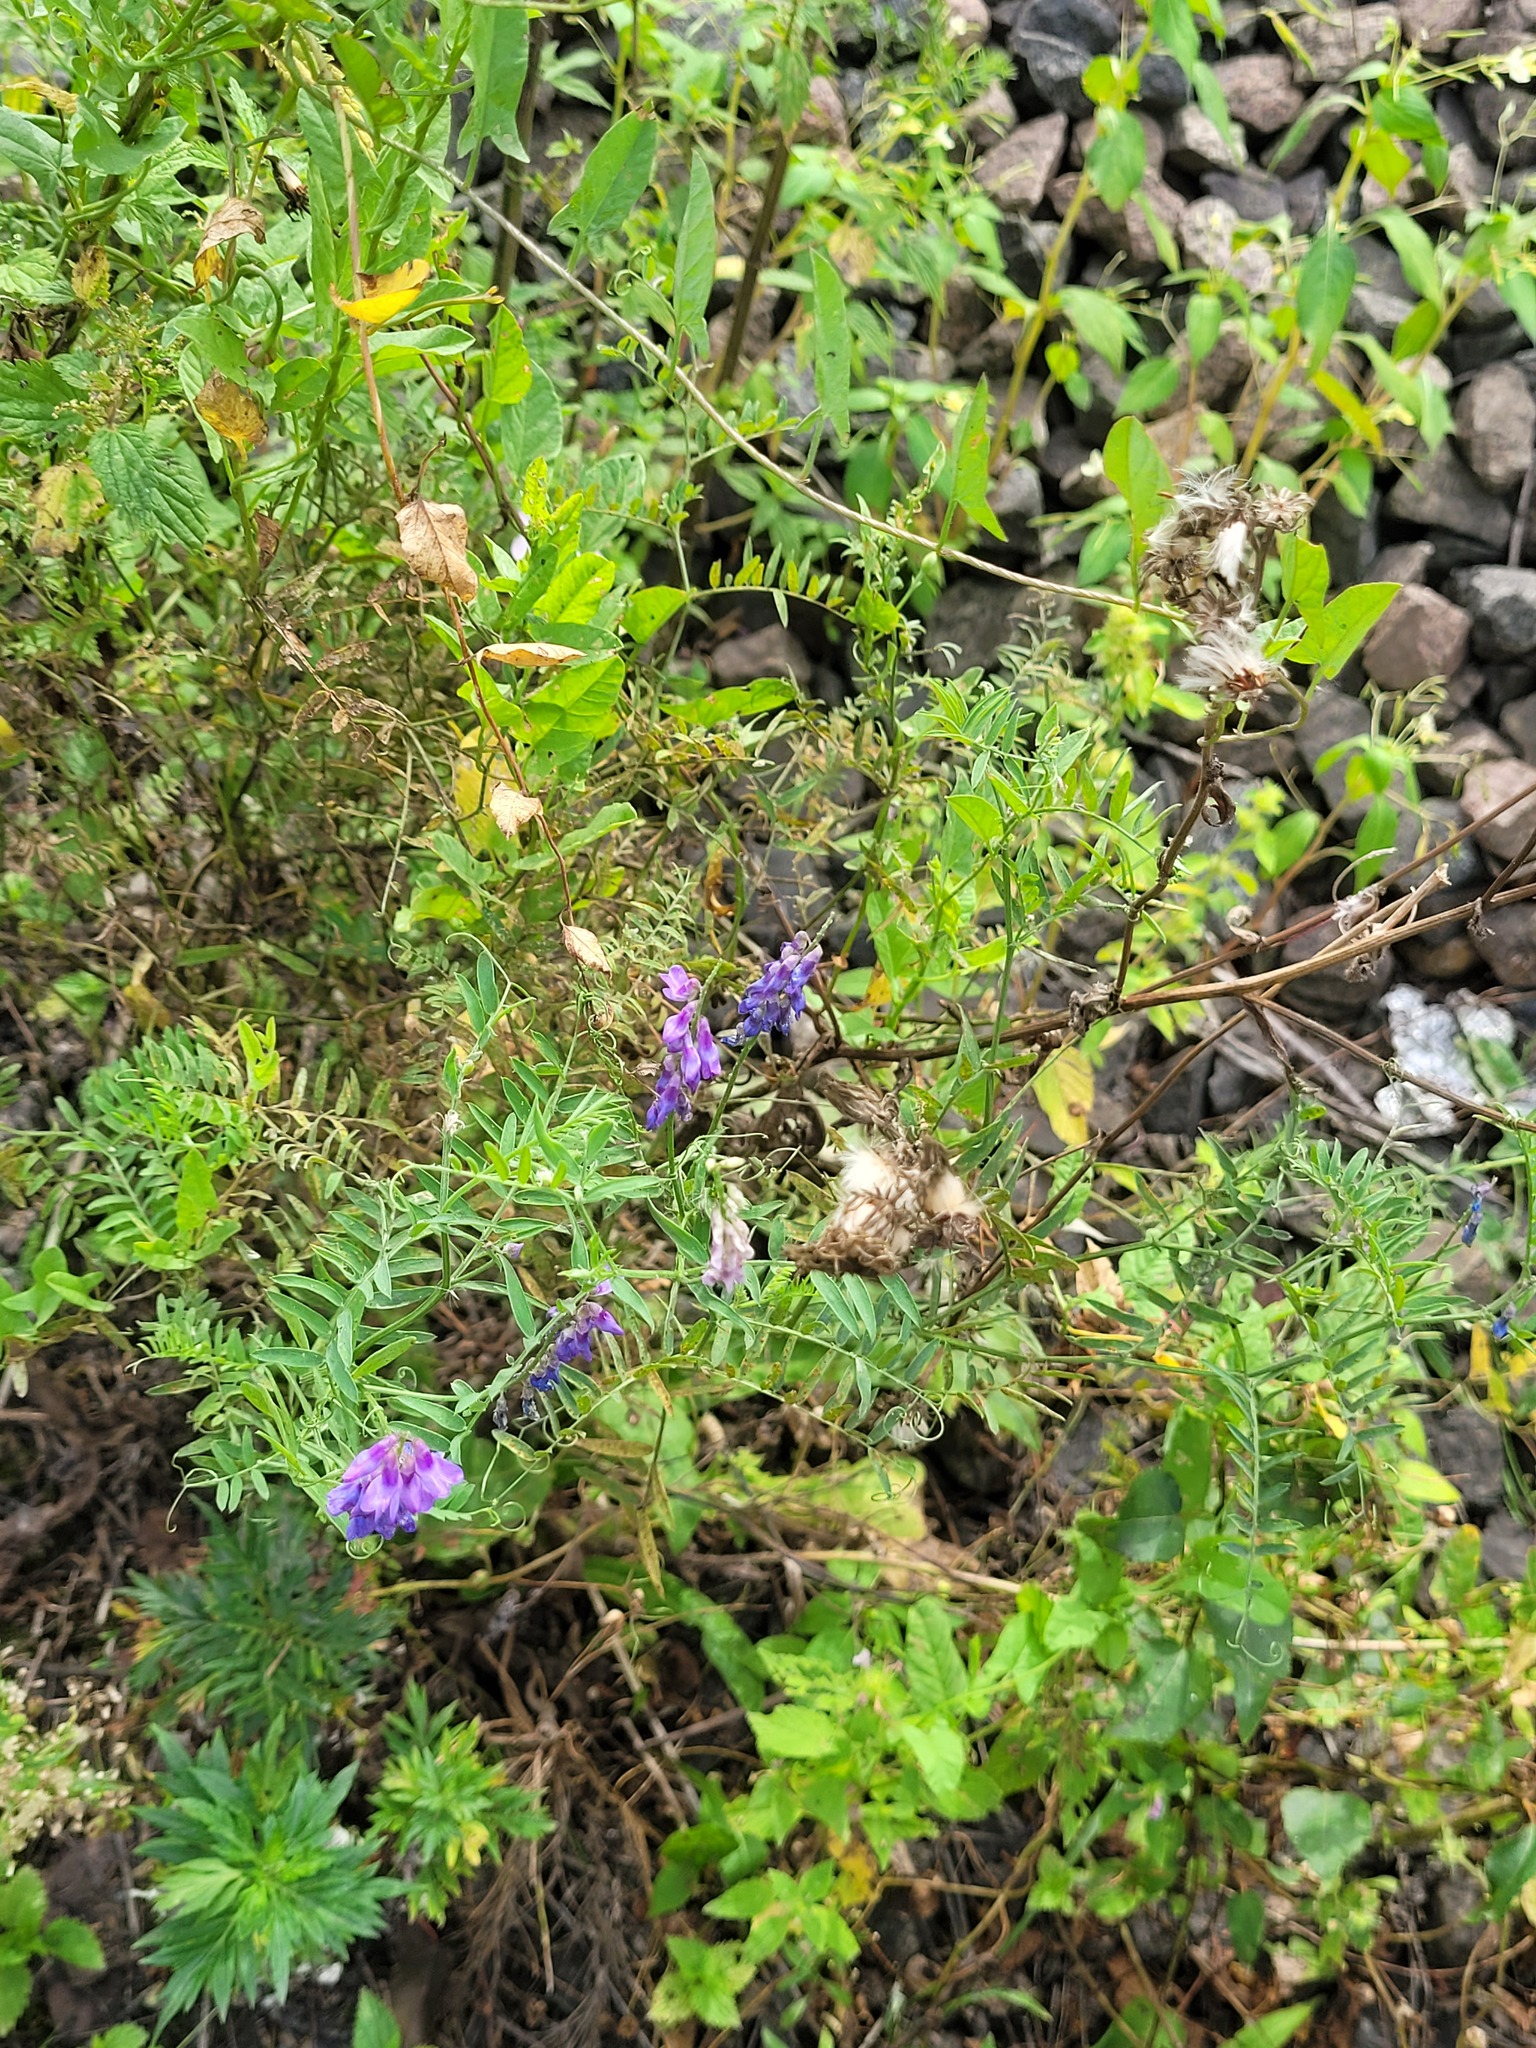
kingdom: Plantae
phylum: Tracheophyta
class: Magnoliopsida
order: Fabales
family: Fabaceae
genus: Vicia
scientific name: Vicia cracca
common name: Bird vetch
